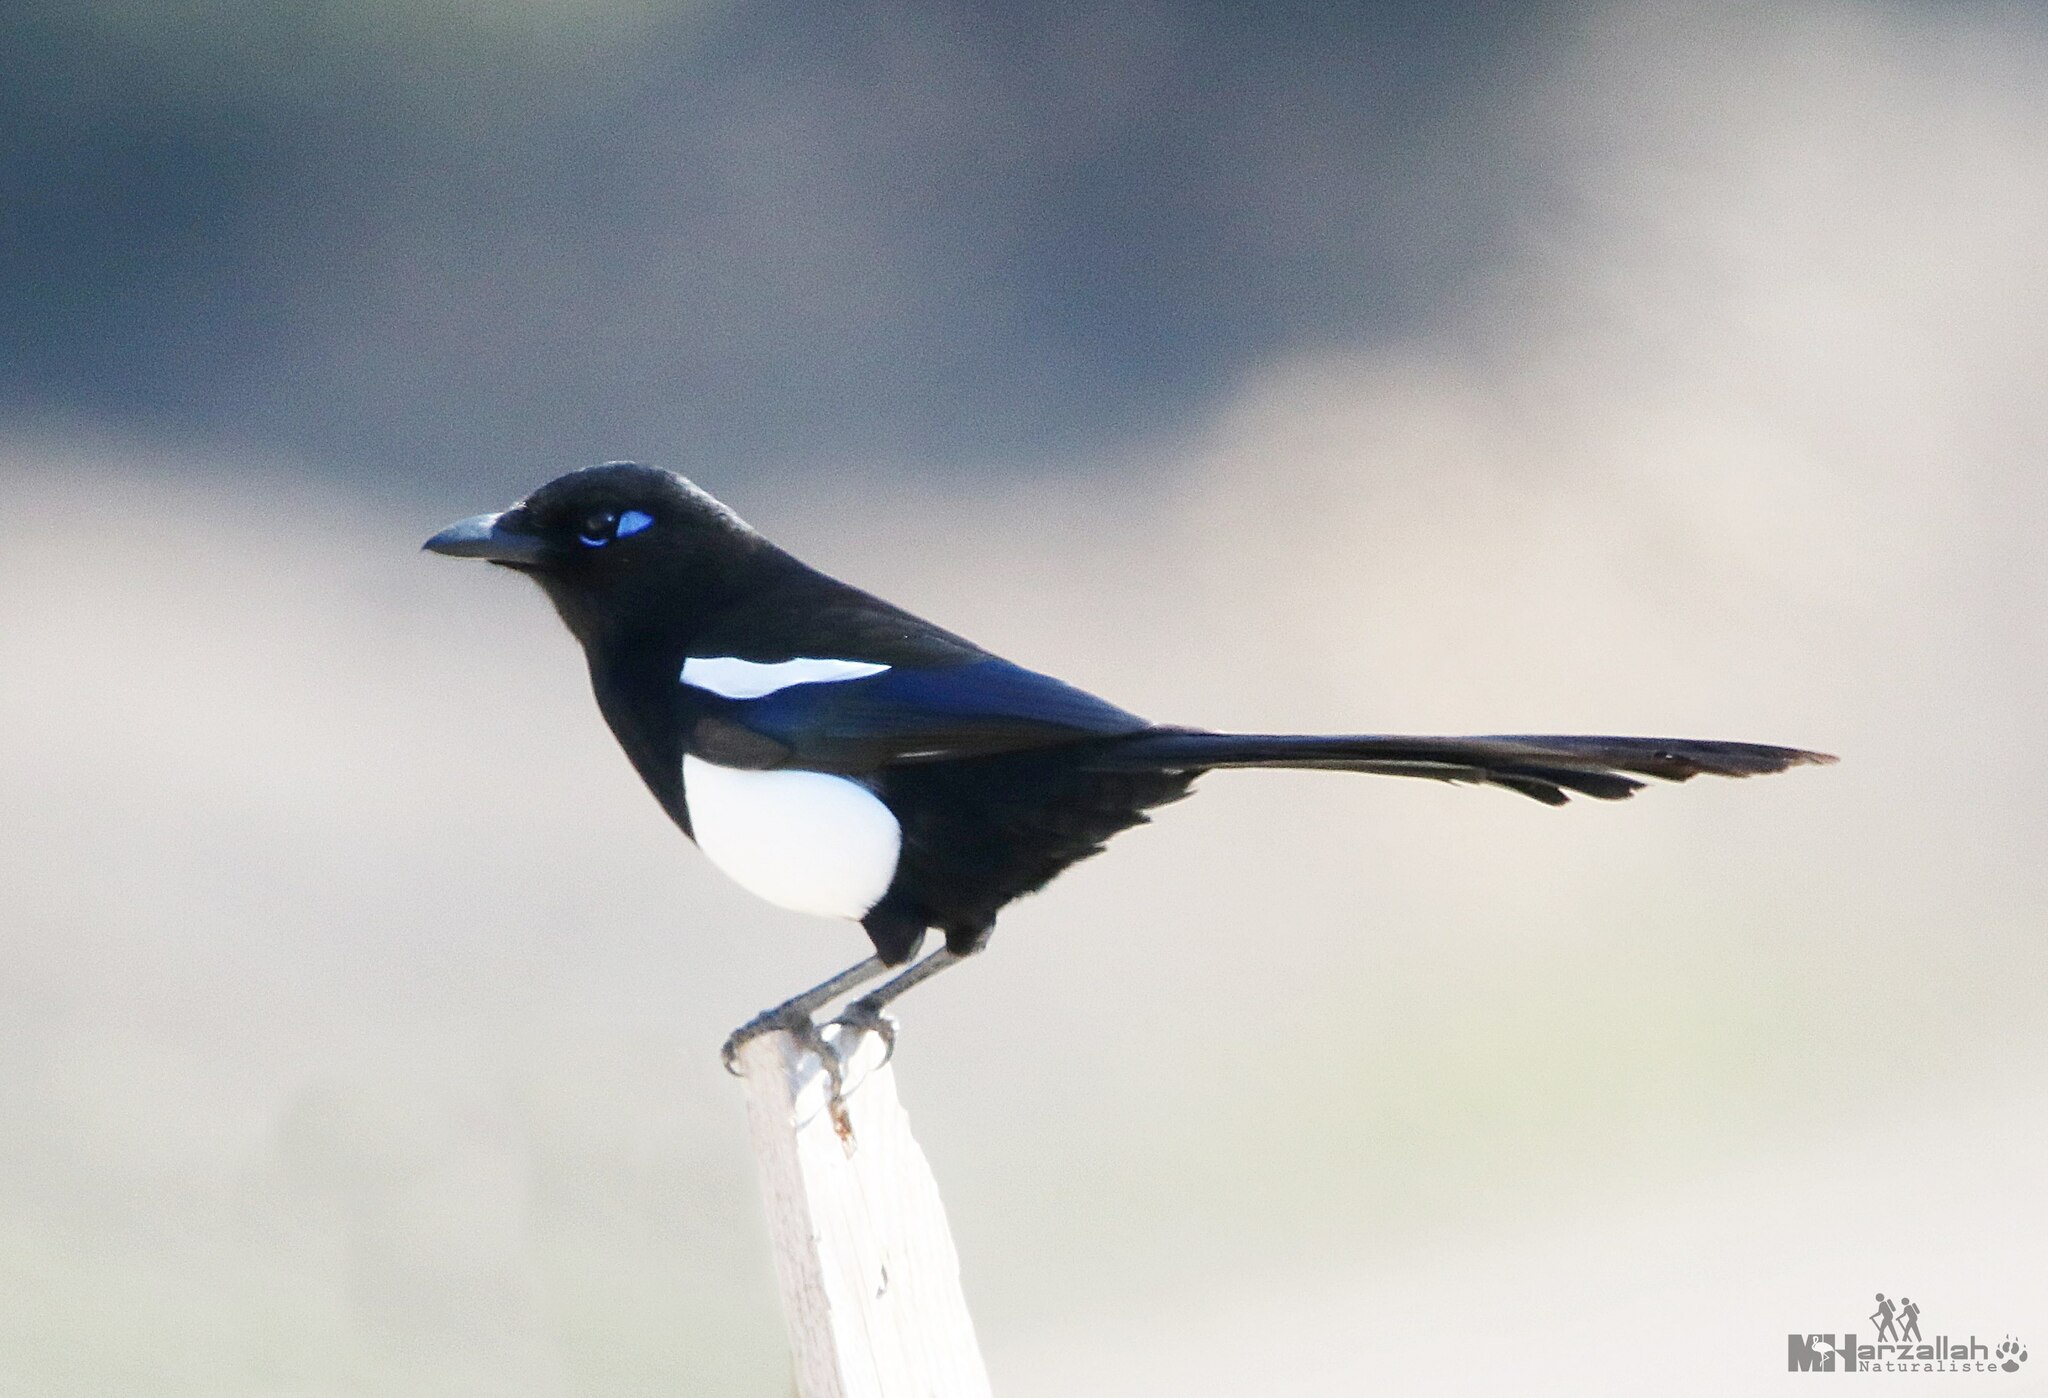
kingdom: Animalia
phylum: Chordata
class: Aves
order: Passeriformes
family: Corvidae
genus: Pica
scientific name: Pica mauritanica
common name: Maghreb magpie
